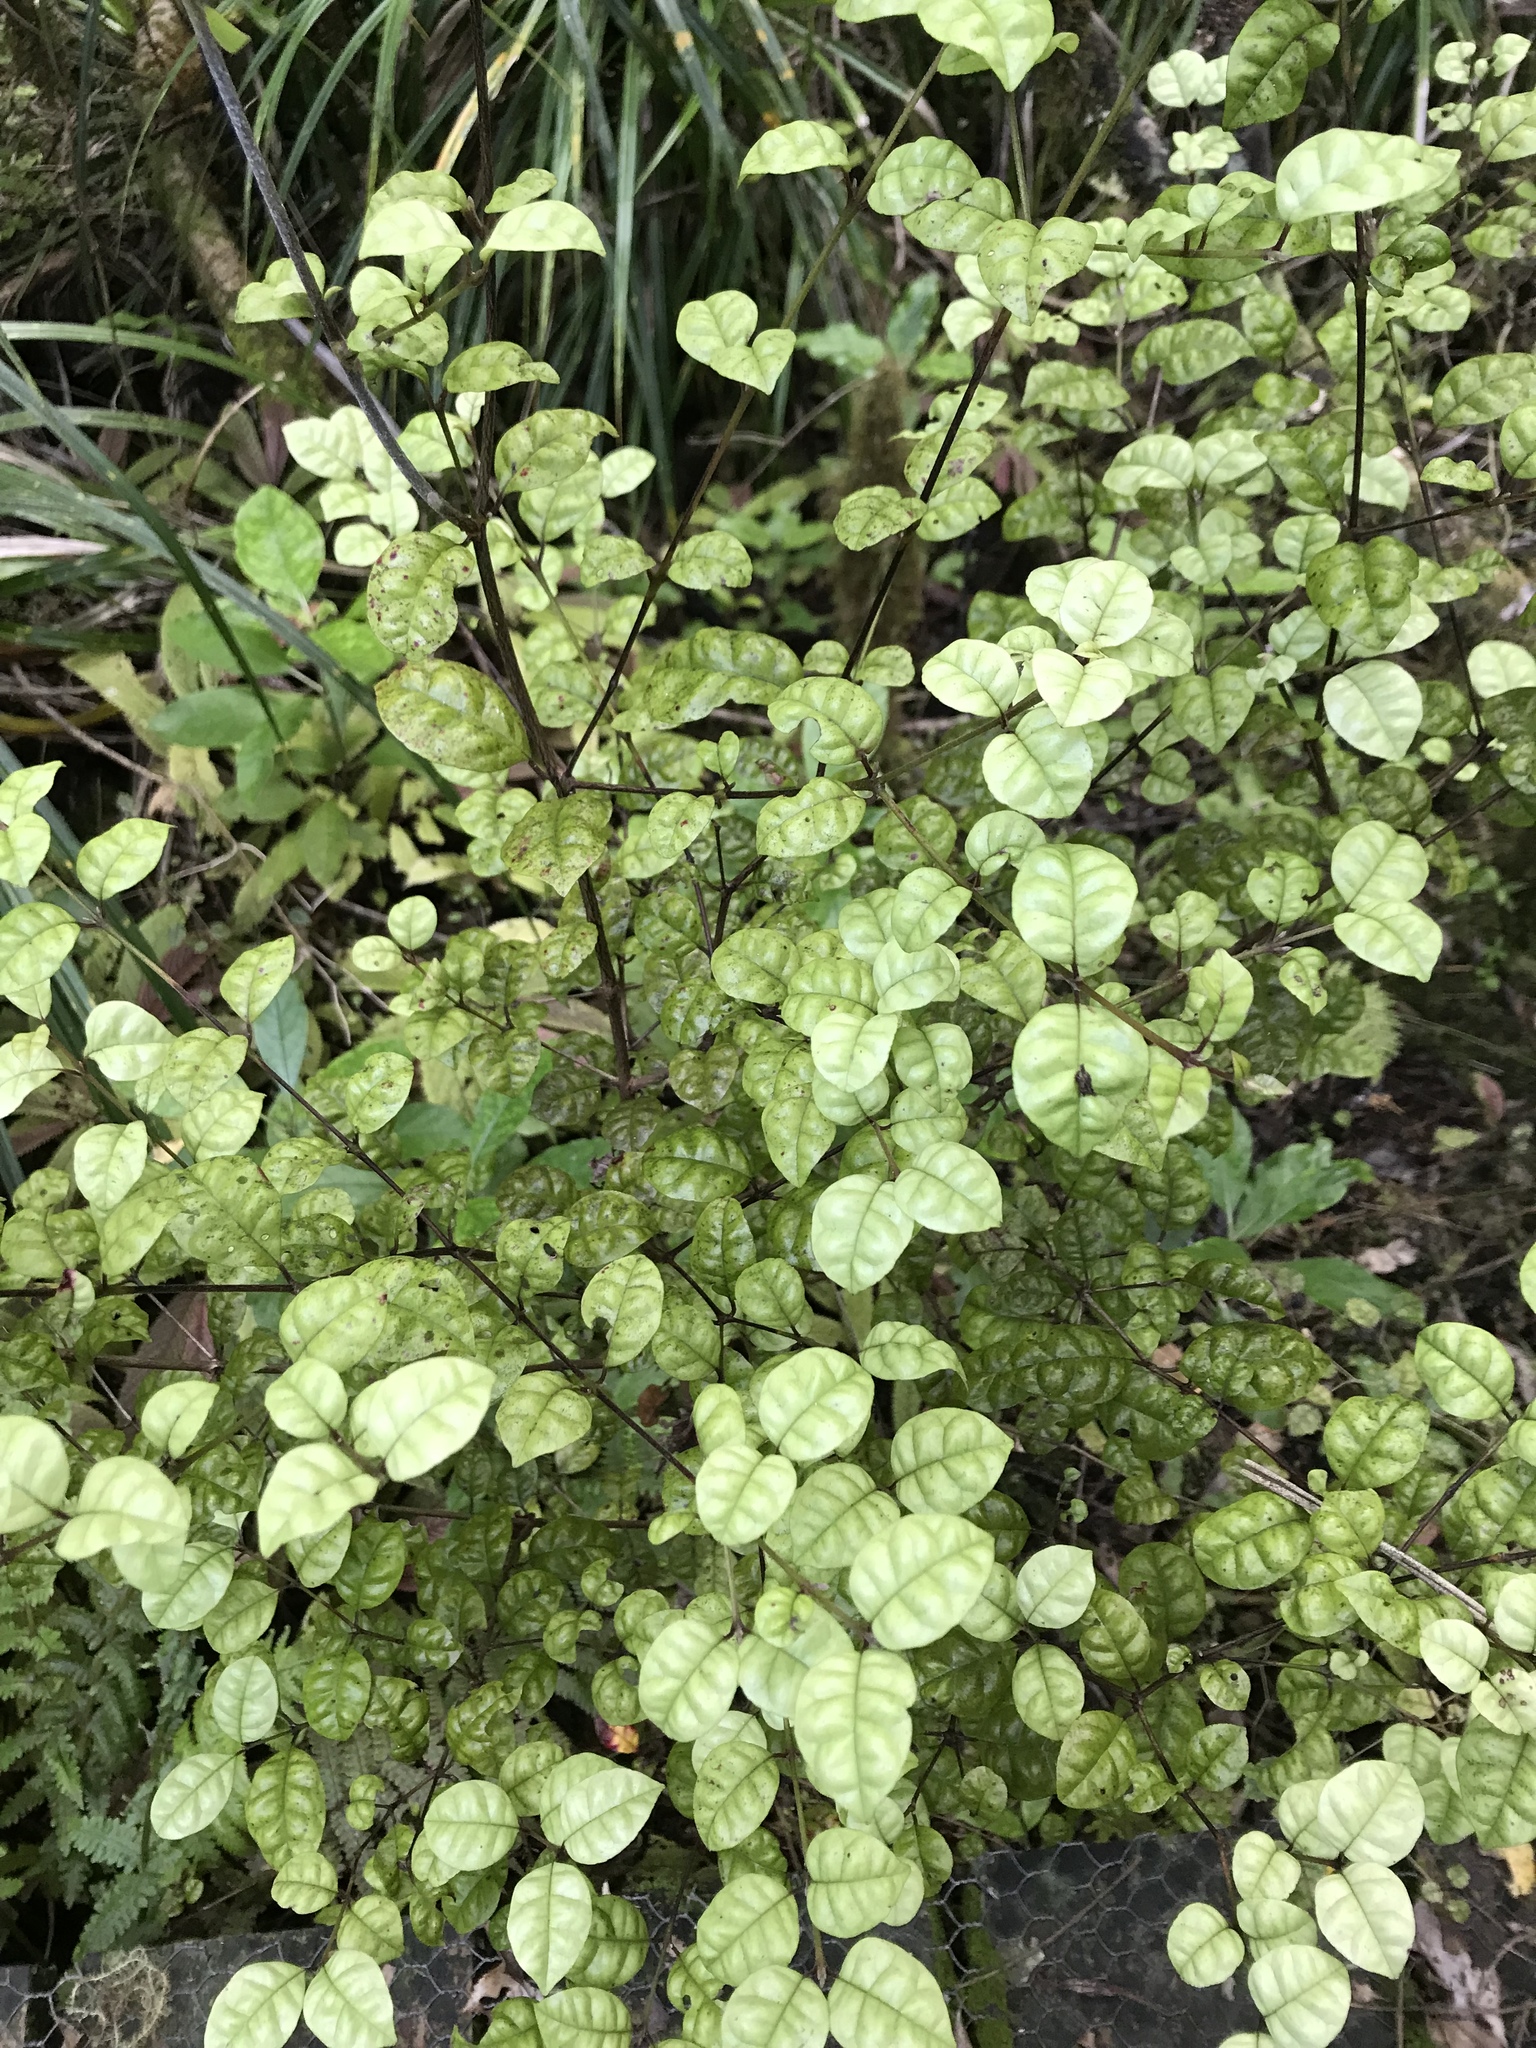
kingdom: Plantae
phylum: Tracheophyta
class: Magnoliopsida
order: Myrtales
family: Myrtaceae
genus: Lophomyrtus
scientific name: Lophomyrtus bullata
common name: Rama rama
